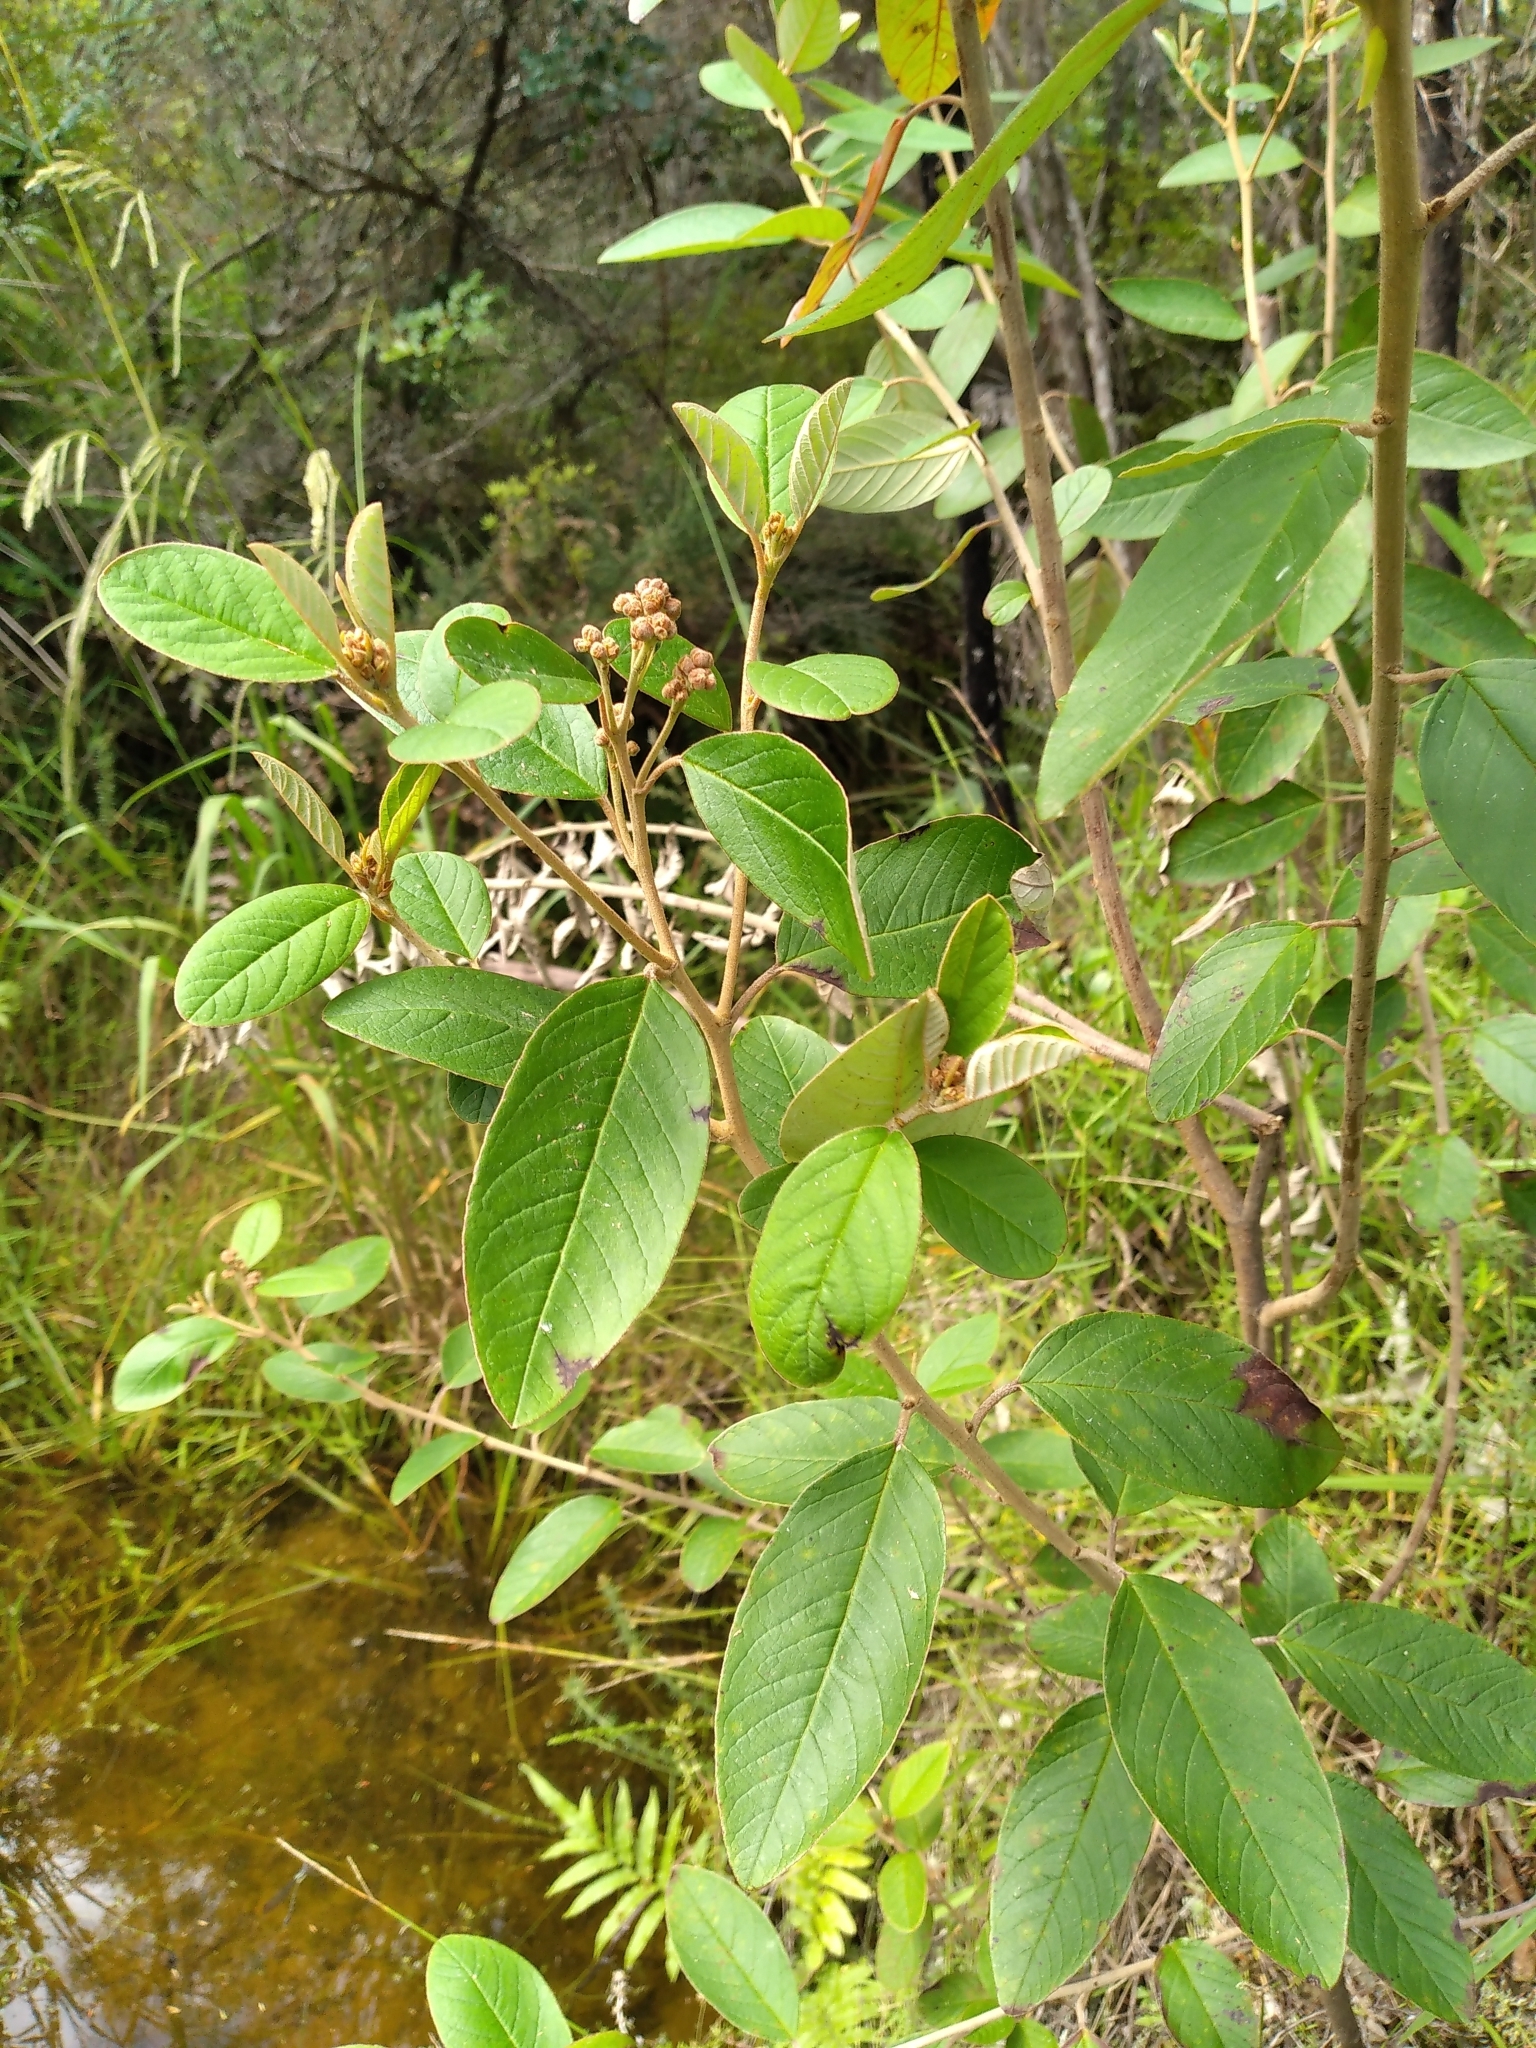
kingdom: Plantae
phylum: Tracheophyta
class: Magnoliopsida
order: Rosales
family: Rhamnaceae
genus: Pomaderris
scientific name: Pomaderris kumeraho
